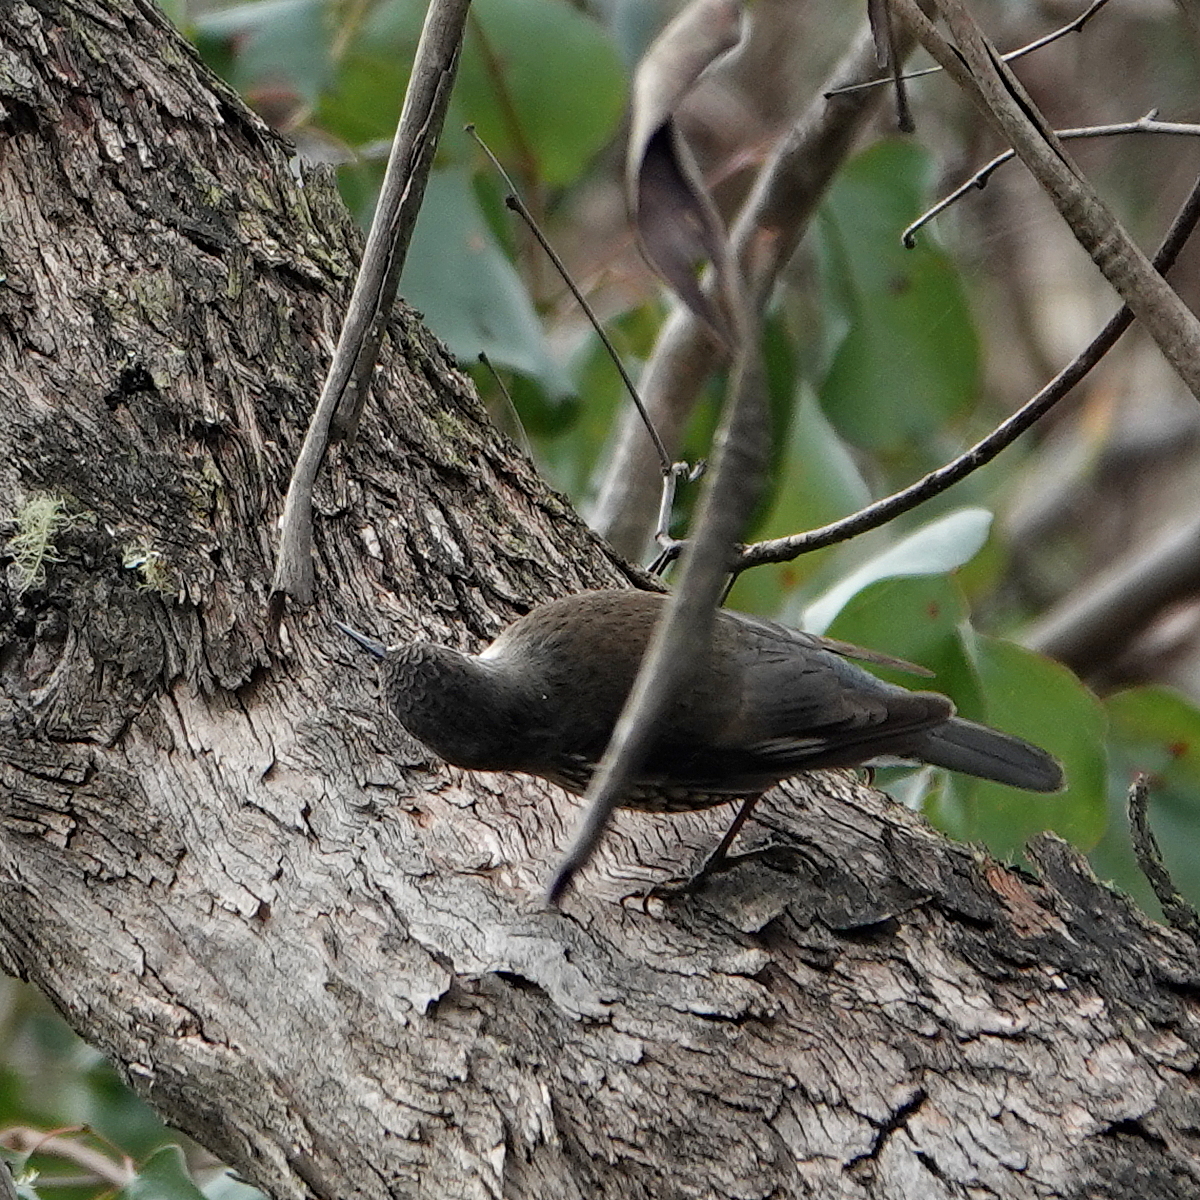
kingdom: Animalia
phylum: Chordata
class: Aves
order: Passeriformes
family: Climacteridae
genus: Cormobates
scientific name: Cormobates leucophaea
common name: White-throated treecreeper
